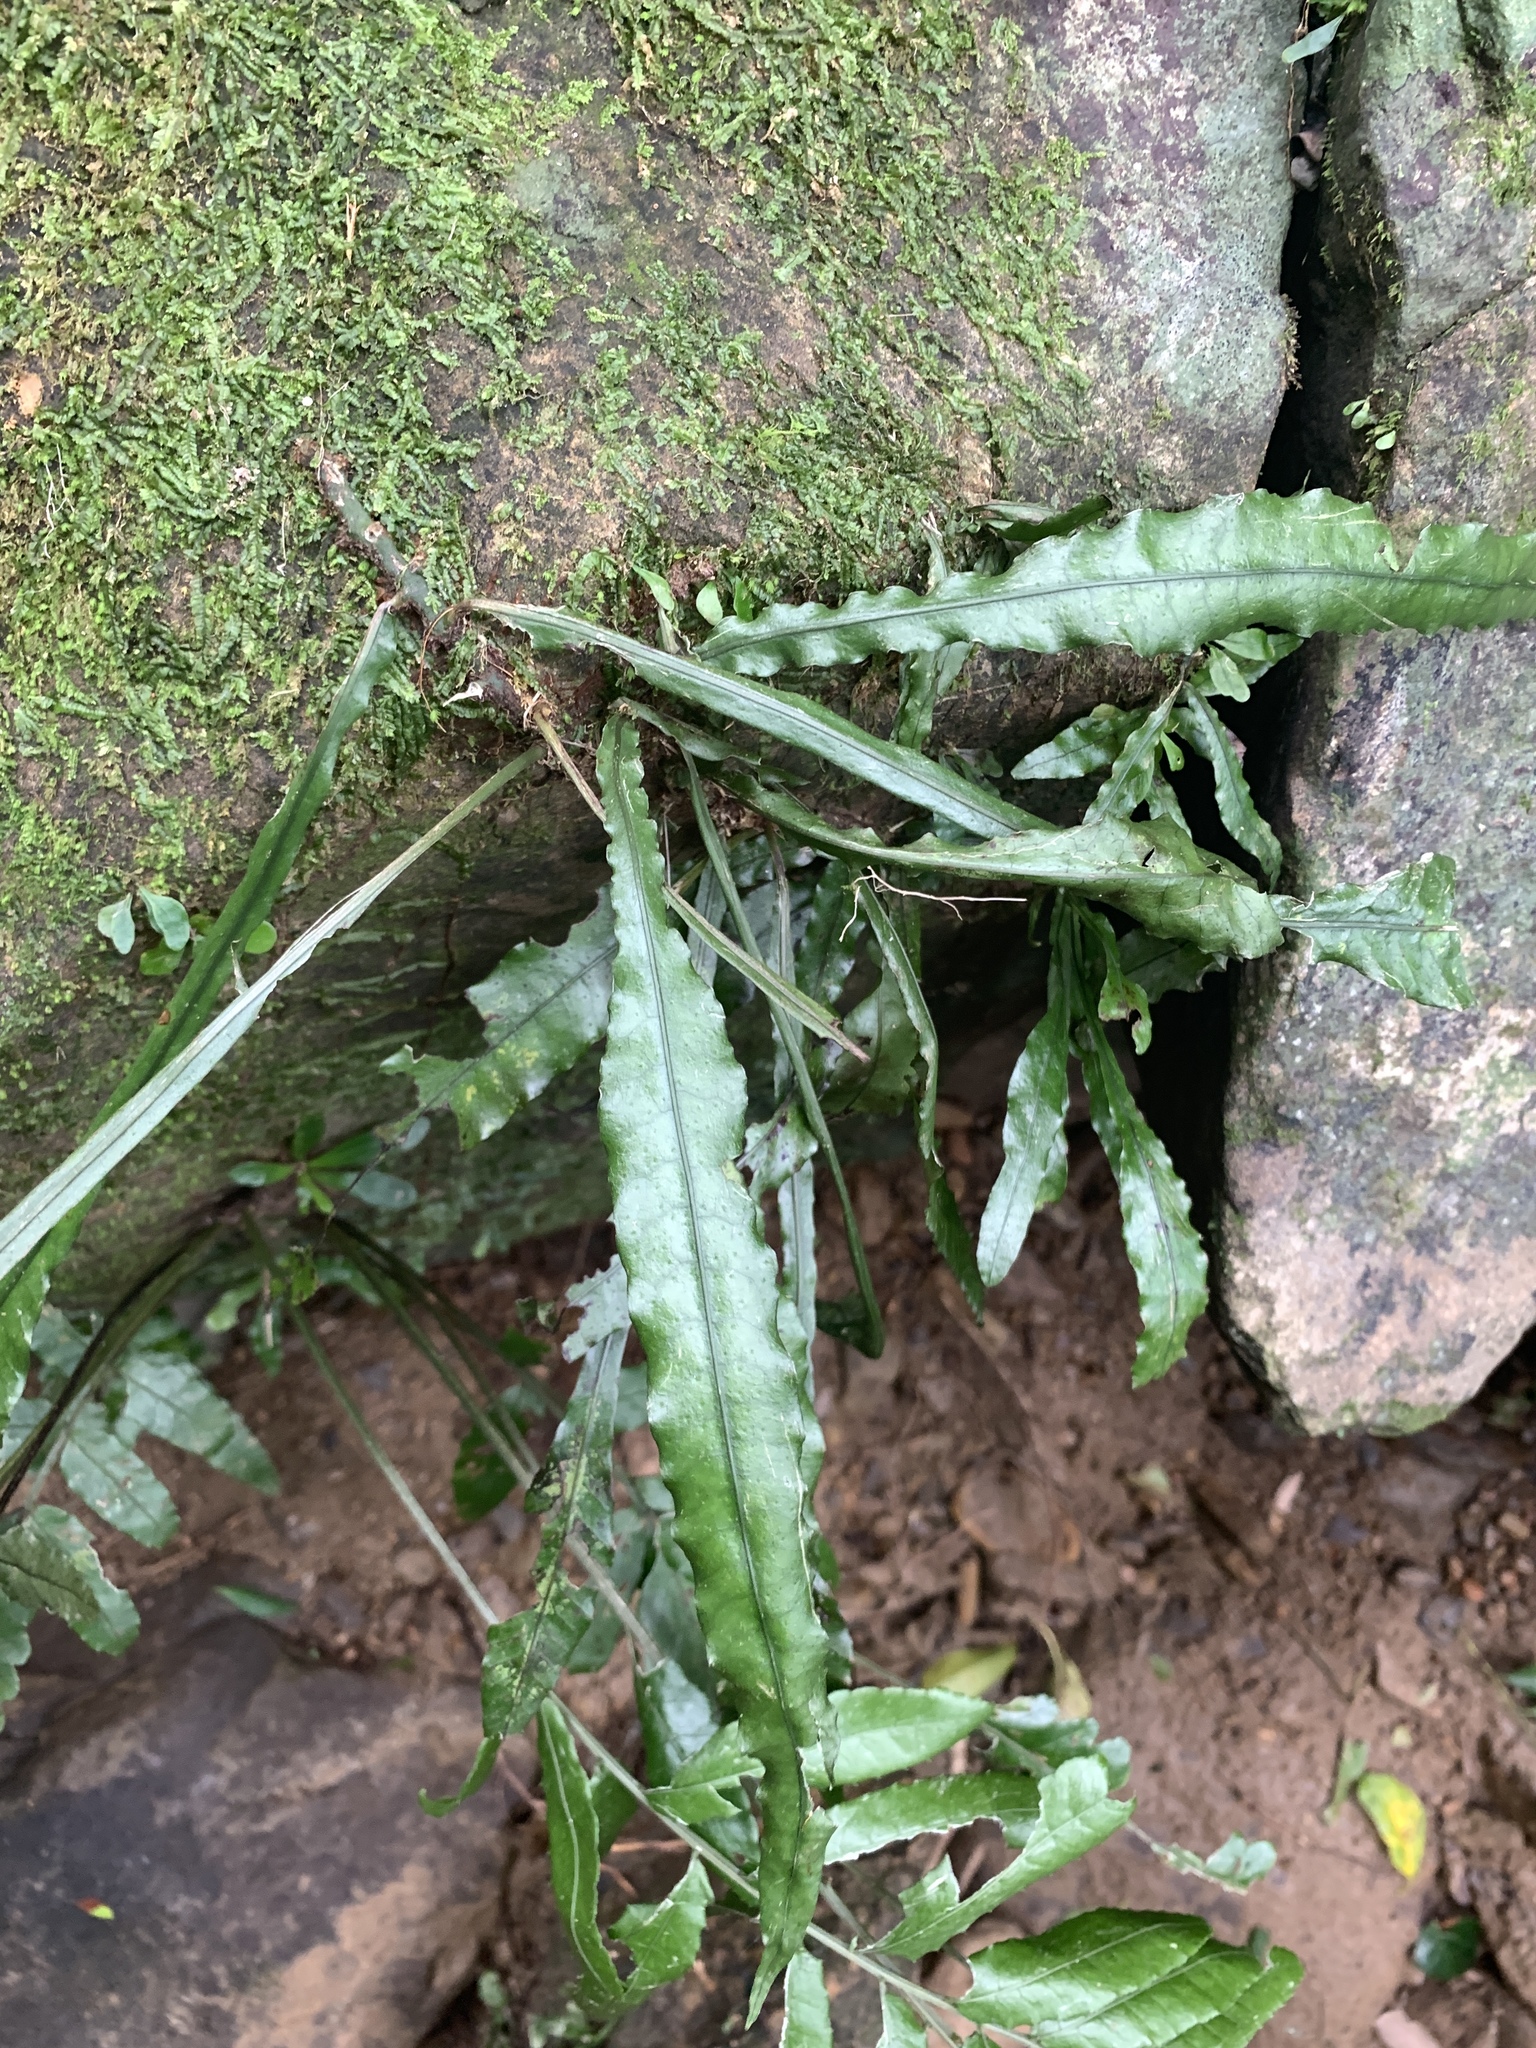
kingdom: Plantae
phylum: Tracheophyta
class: Polypodiopsida
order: Polypodiales
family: Polypodiaceae
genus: Leptochilus
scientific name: Leptochilus wrightii
